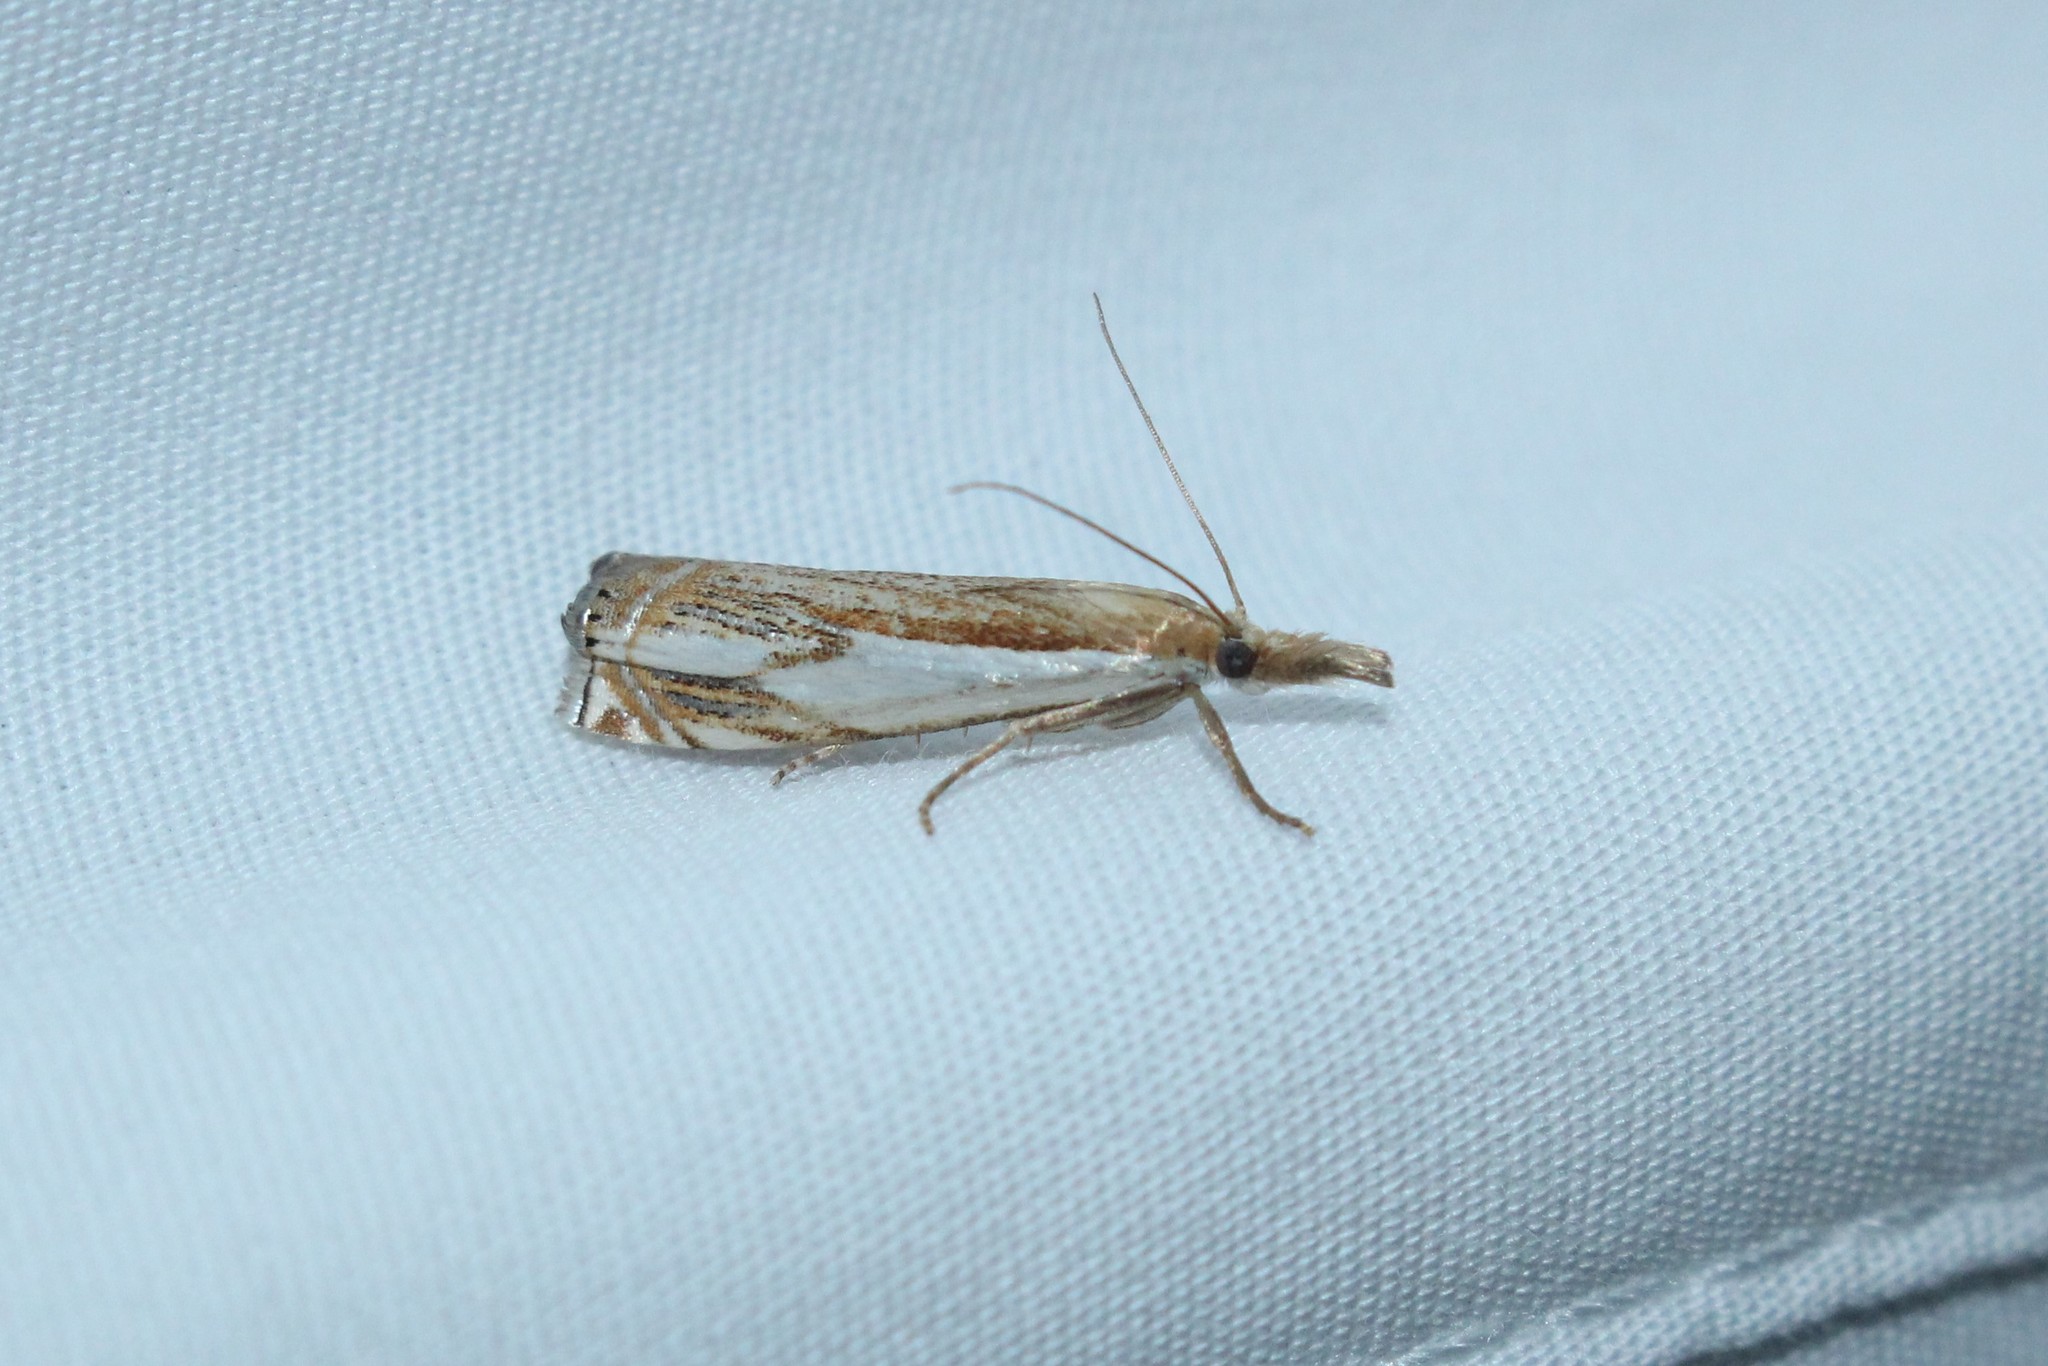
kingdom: Animalia
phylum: Arthropoda
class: Insecta
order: Lepidoptera
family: Crambidae
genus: Crambus
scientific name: Crambus agitatellus
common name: Double-banded grass-veneer
